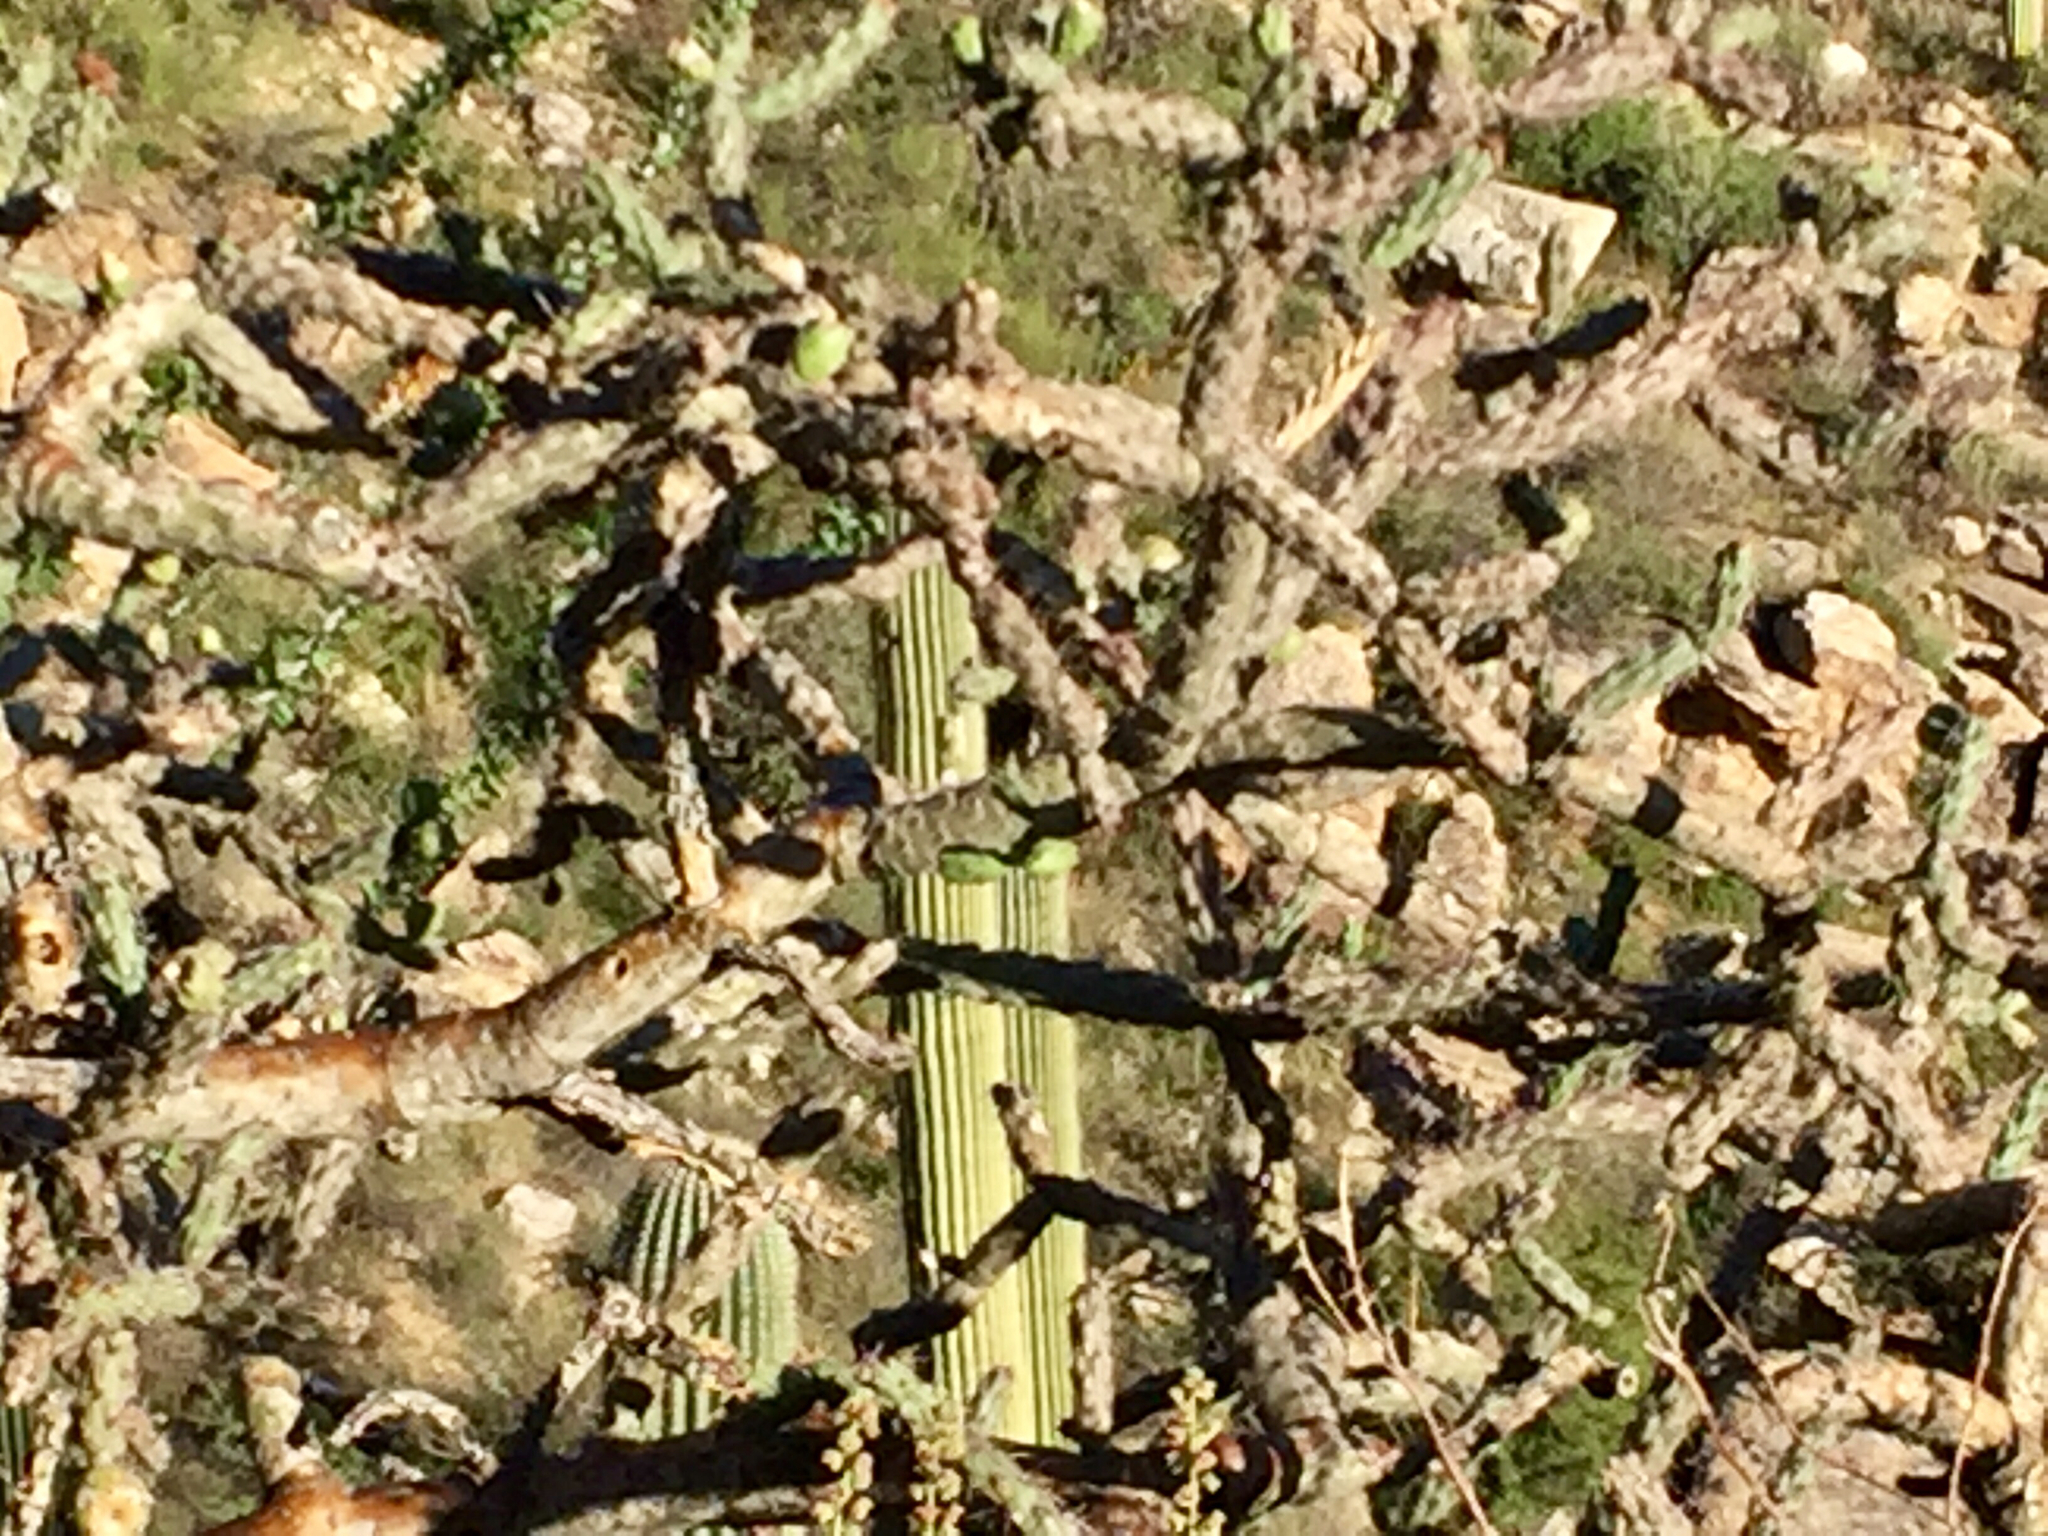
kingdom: Plantae
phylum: Tracheophyta
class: Magnoliopsida
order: Caryophyllales
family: Cactaceae
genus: Cylindropuntia
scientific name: Cylindropuntia acanthocarpa
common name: Buckhorn cholla
